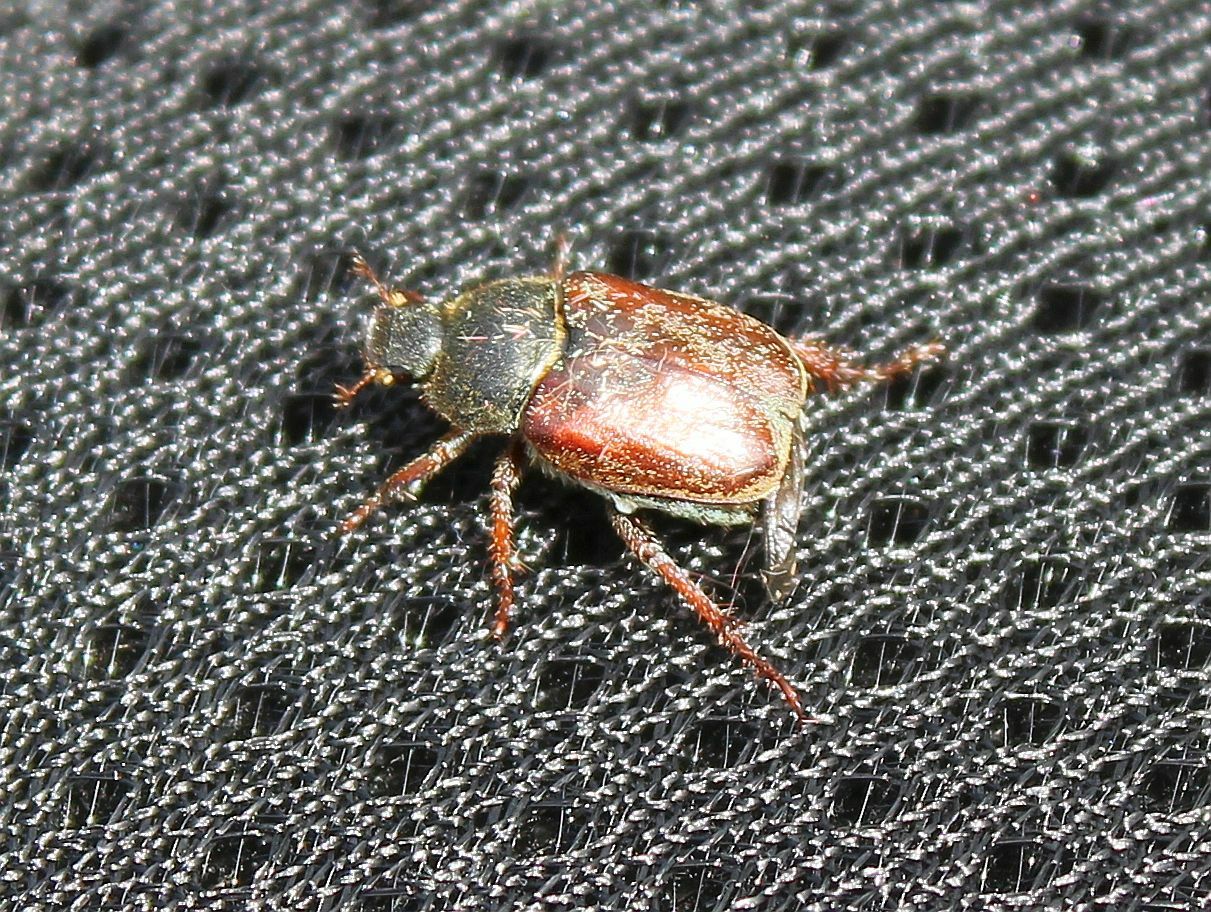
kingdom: Animalia
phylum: Arthropoda
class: Insecta
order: Coleoptera
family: Scarabaeidae
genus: Hoplia
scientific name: Hoplia philanthus
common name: Welsh chafer
